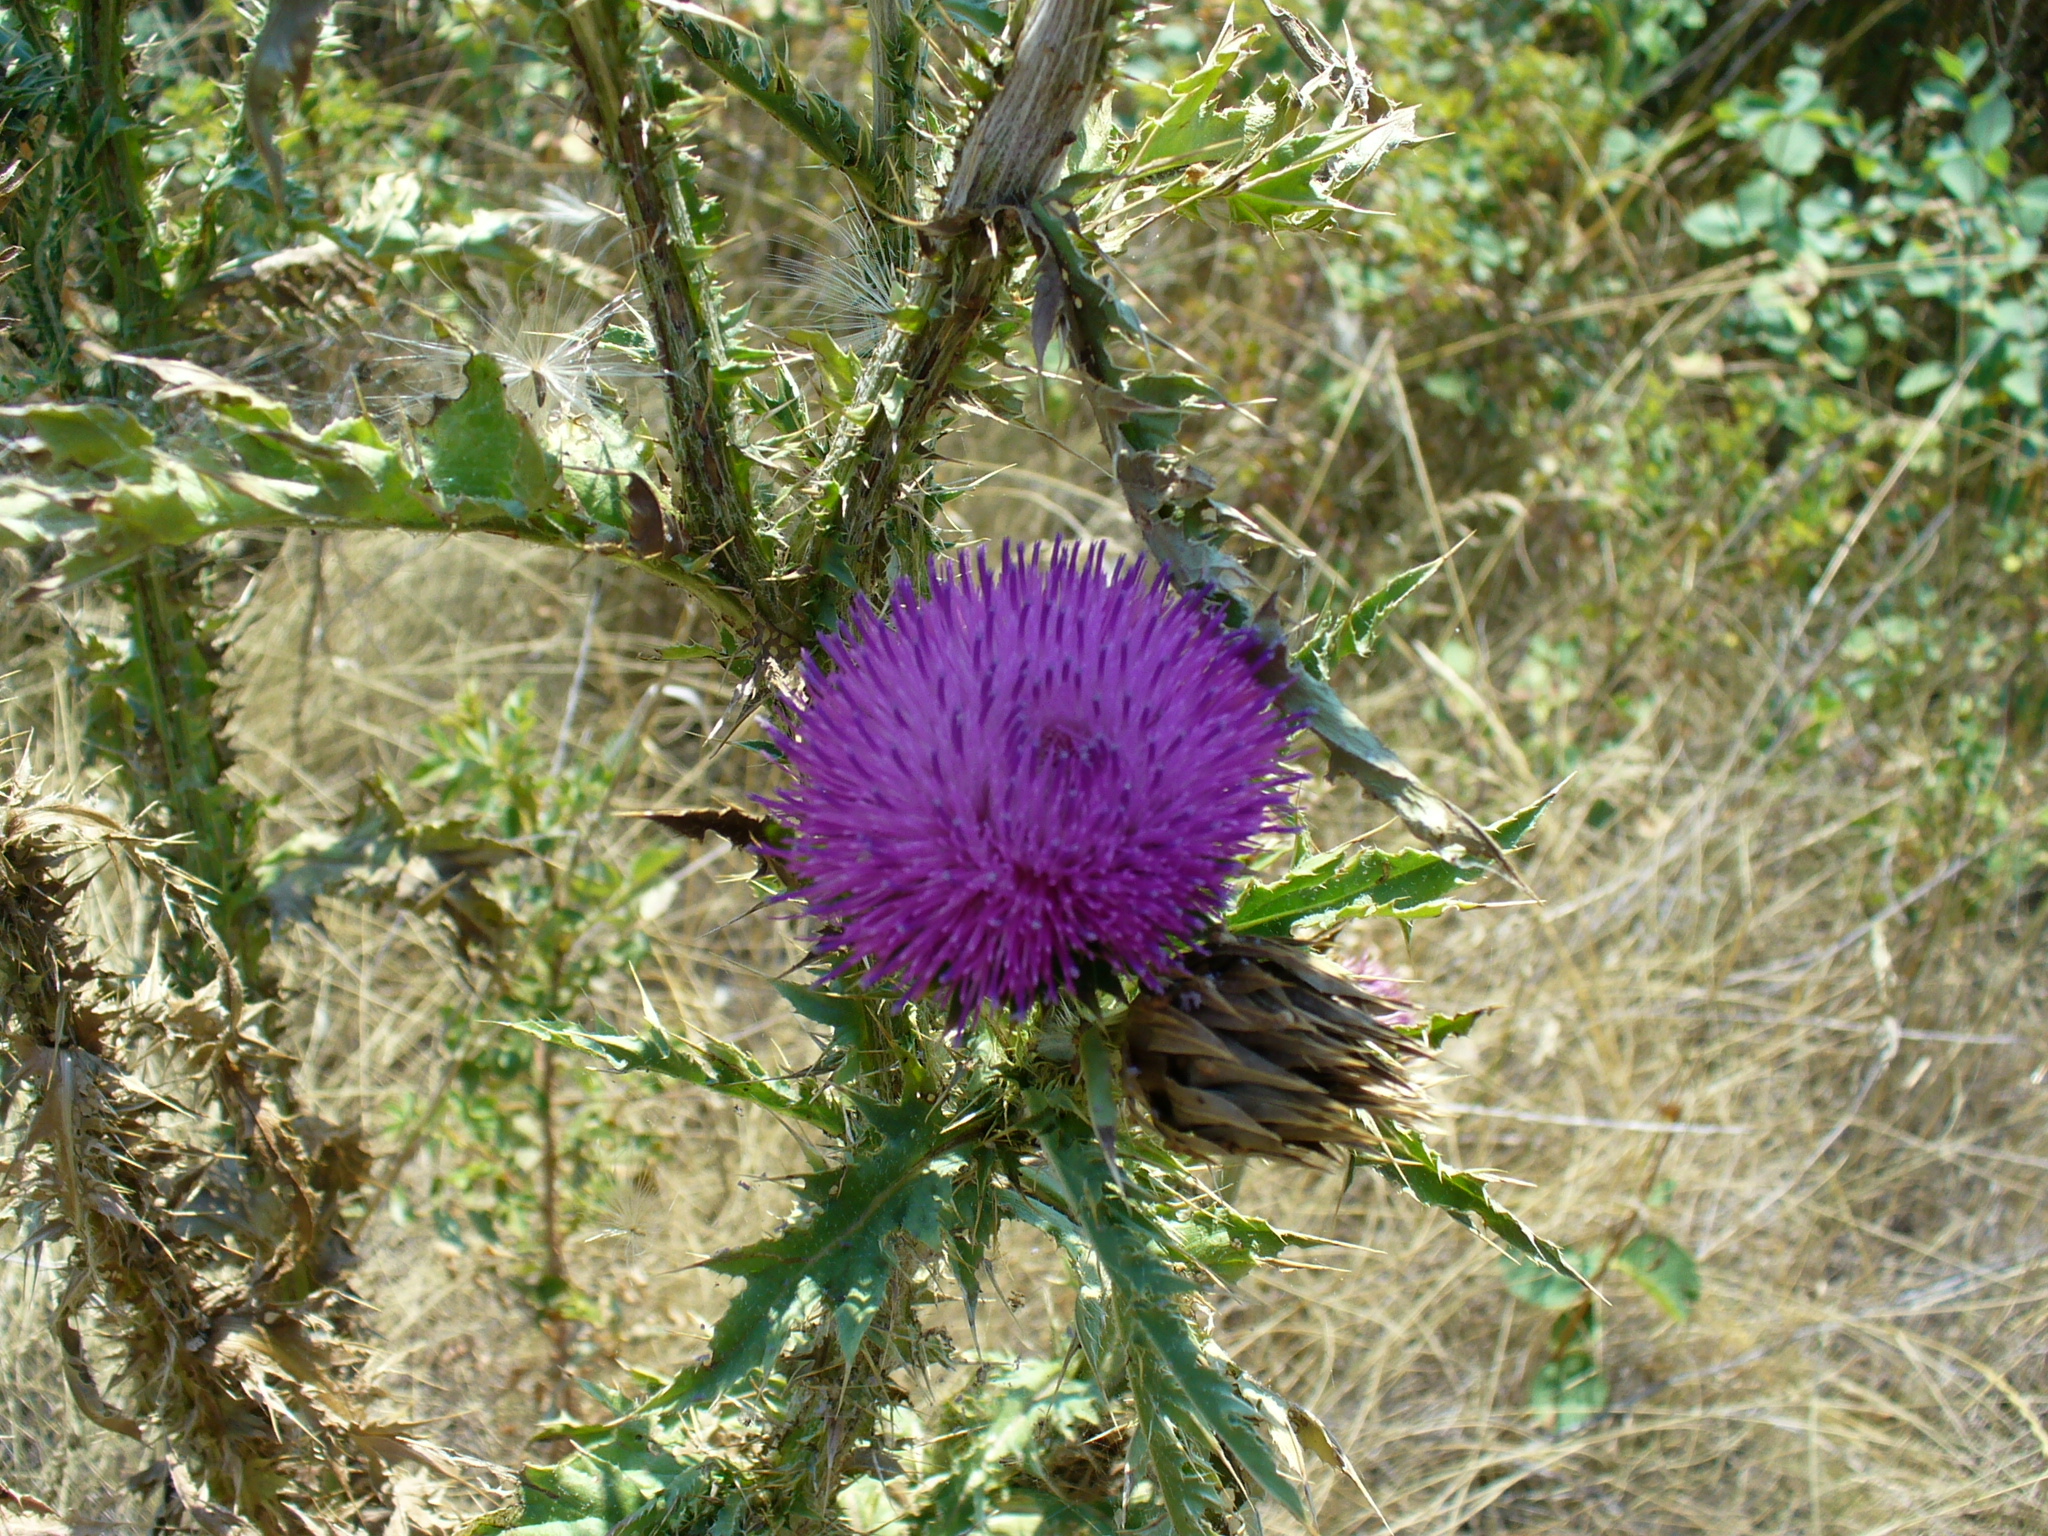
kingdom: Plantae
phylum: Tracheophyta
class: Magnoliopsida
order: Asterales
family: Asteraceae
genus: Carduus
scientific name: Carduus nutans
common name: Musk thistle
